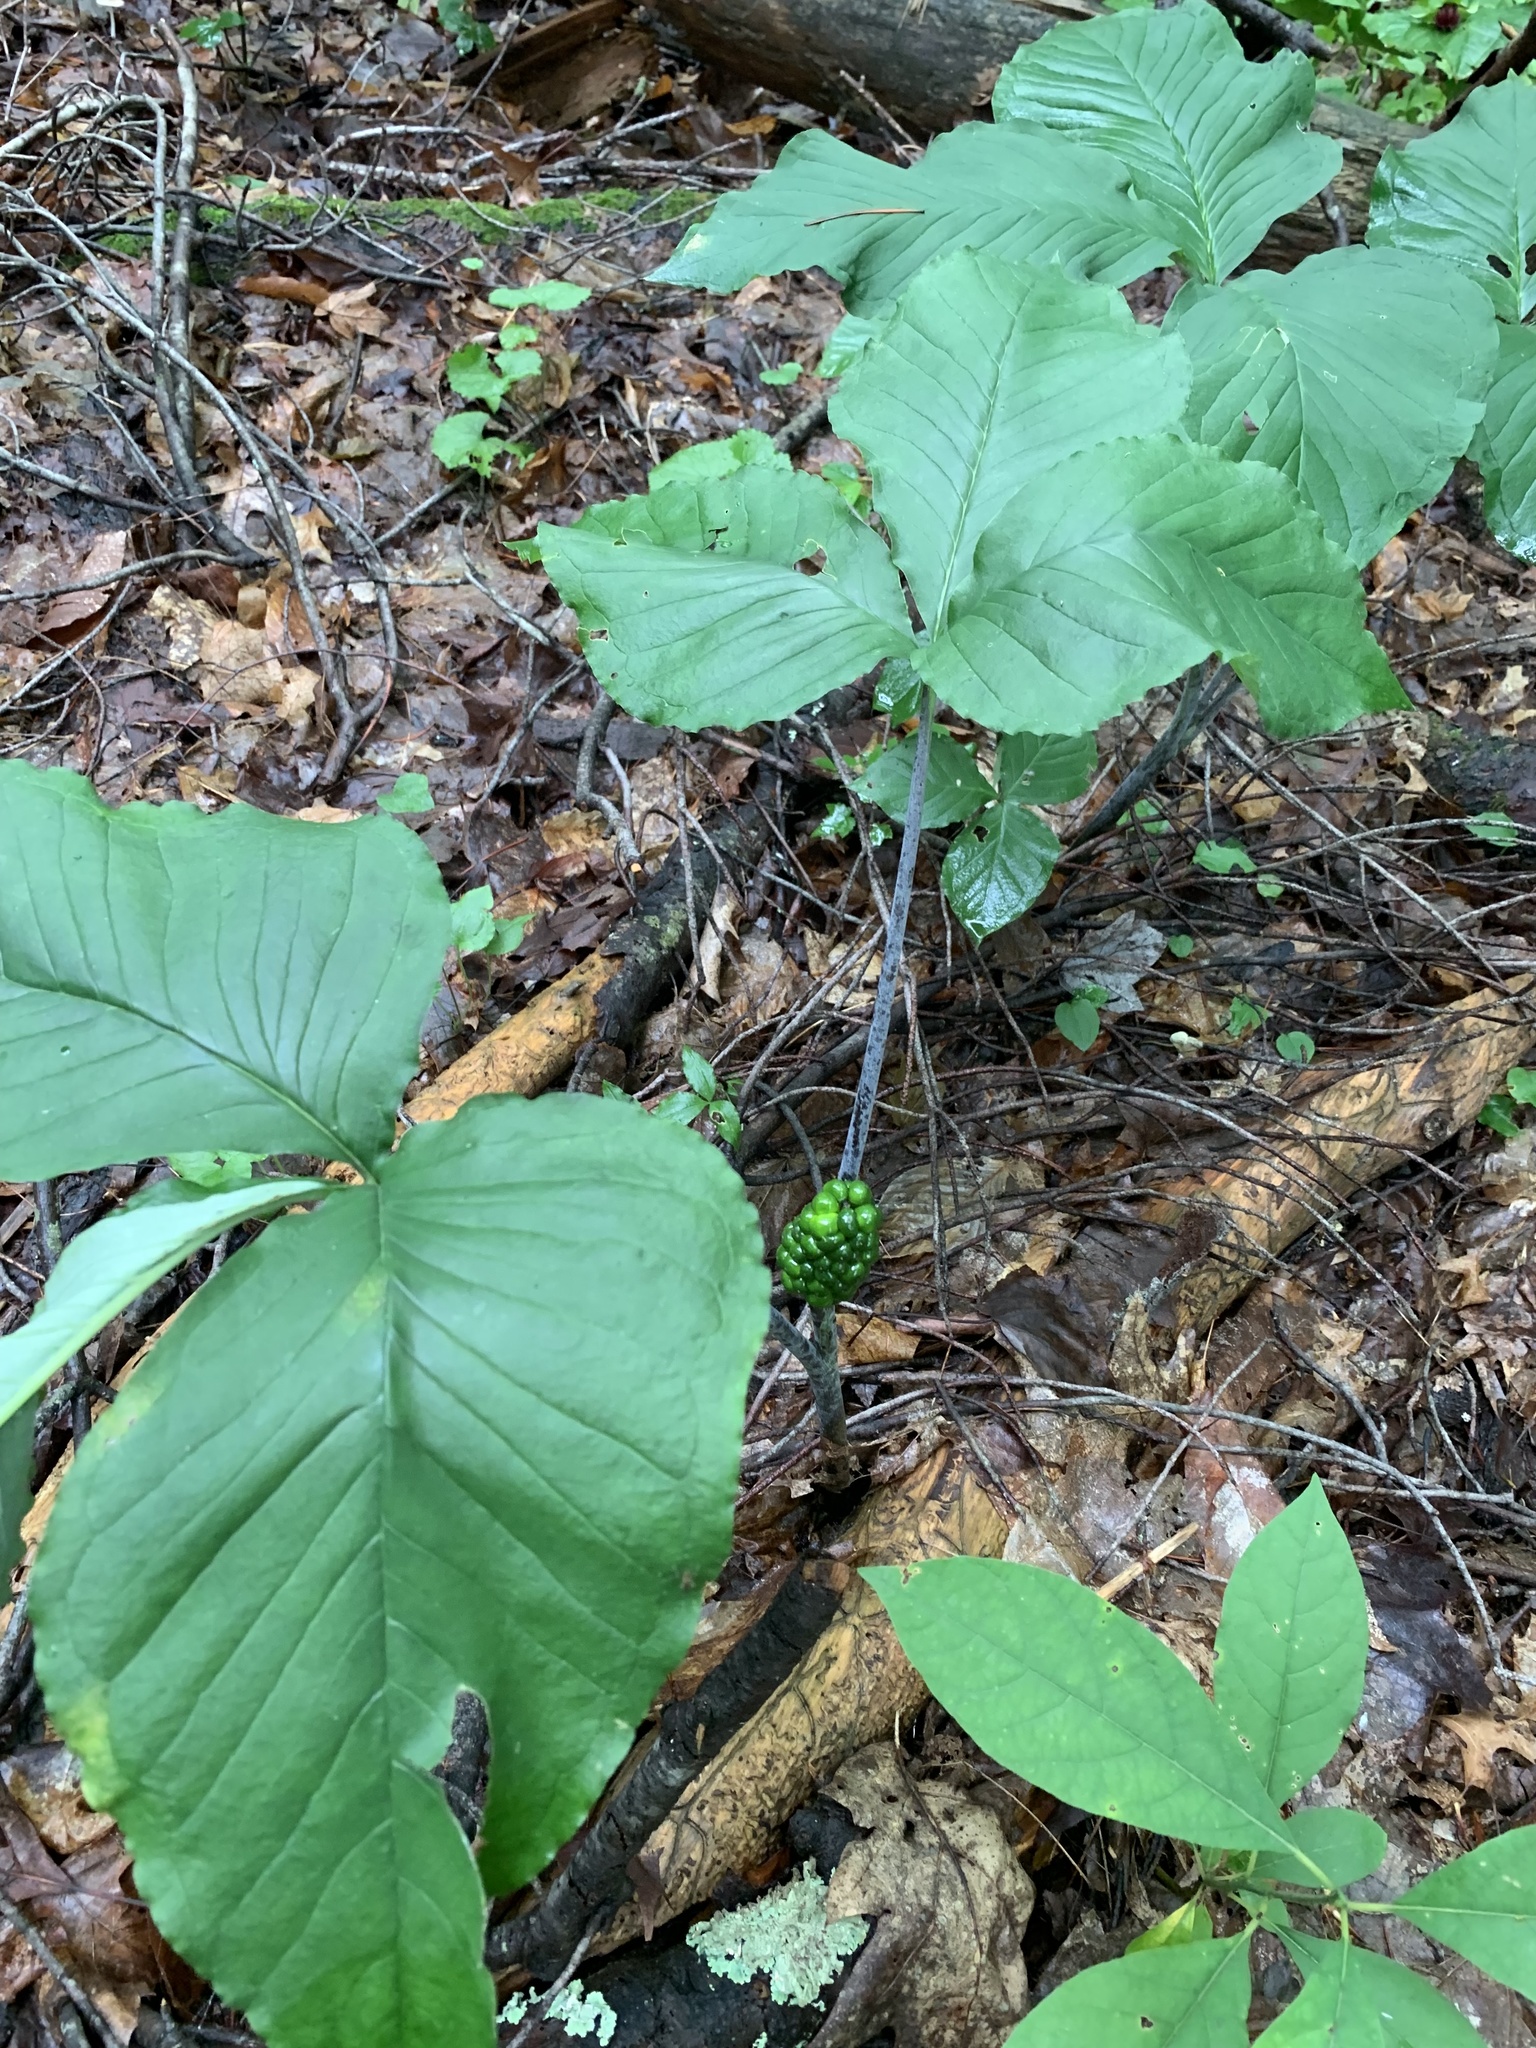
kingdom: Plantae
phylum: Tracheophyta
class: Liliopsida
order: Alismatales
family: Araceae
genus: Arisaema
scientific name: Arisaema triphyllum
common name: Jack-in-the-pulpit
